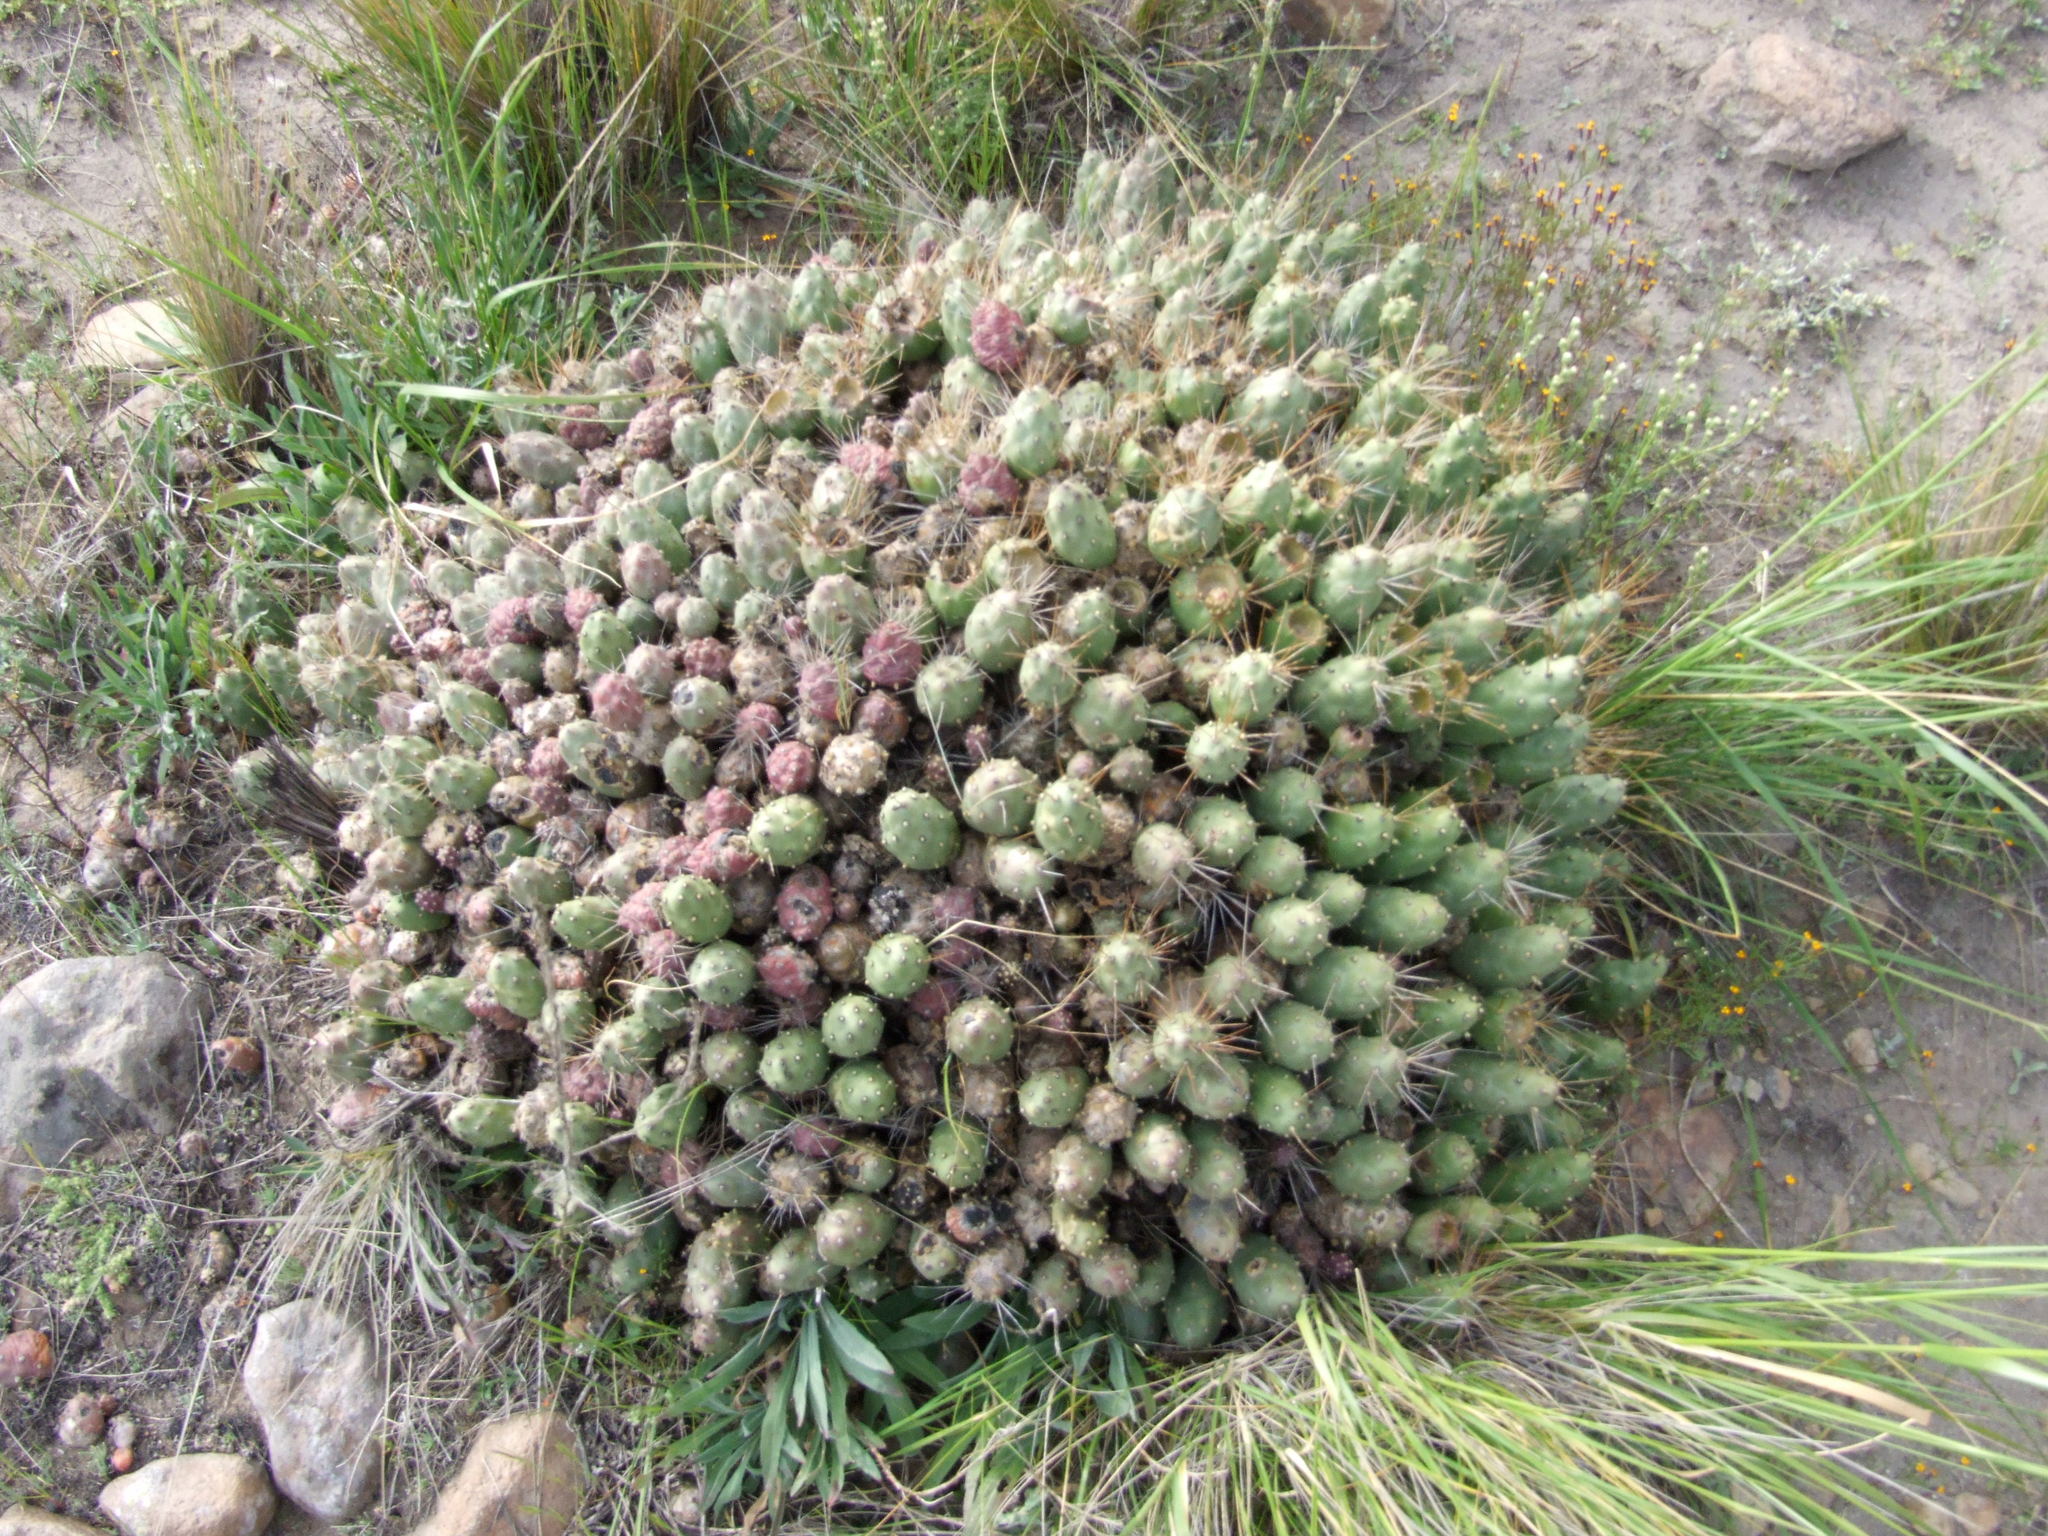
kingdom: Plantae
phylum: Tracheophyta
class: Magnoliopsida
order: Caryophyllales
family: Cactaceae
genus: Cumulopuntia
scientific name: Cumulopuntia corotilla
